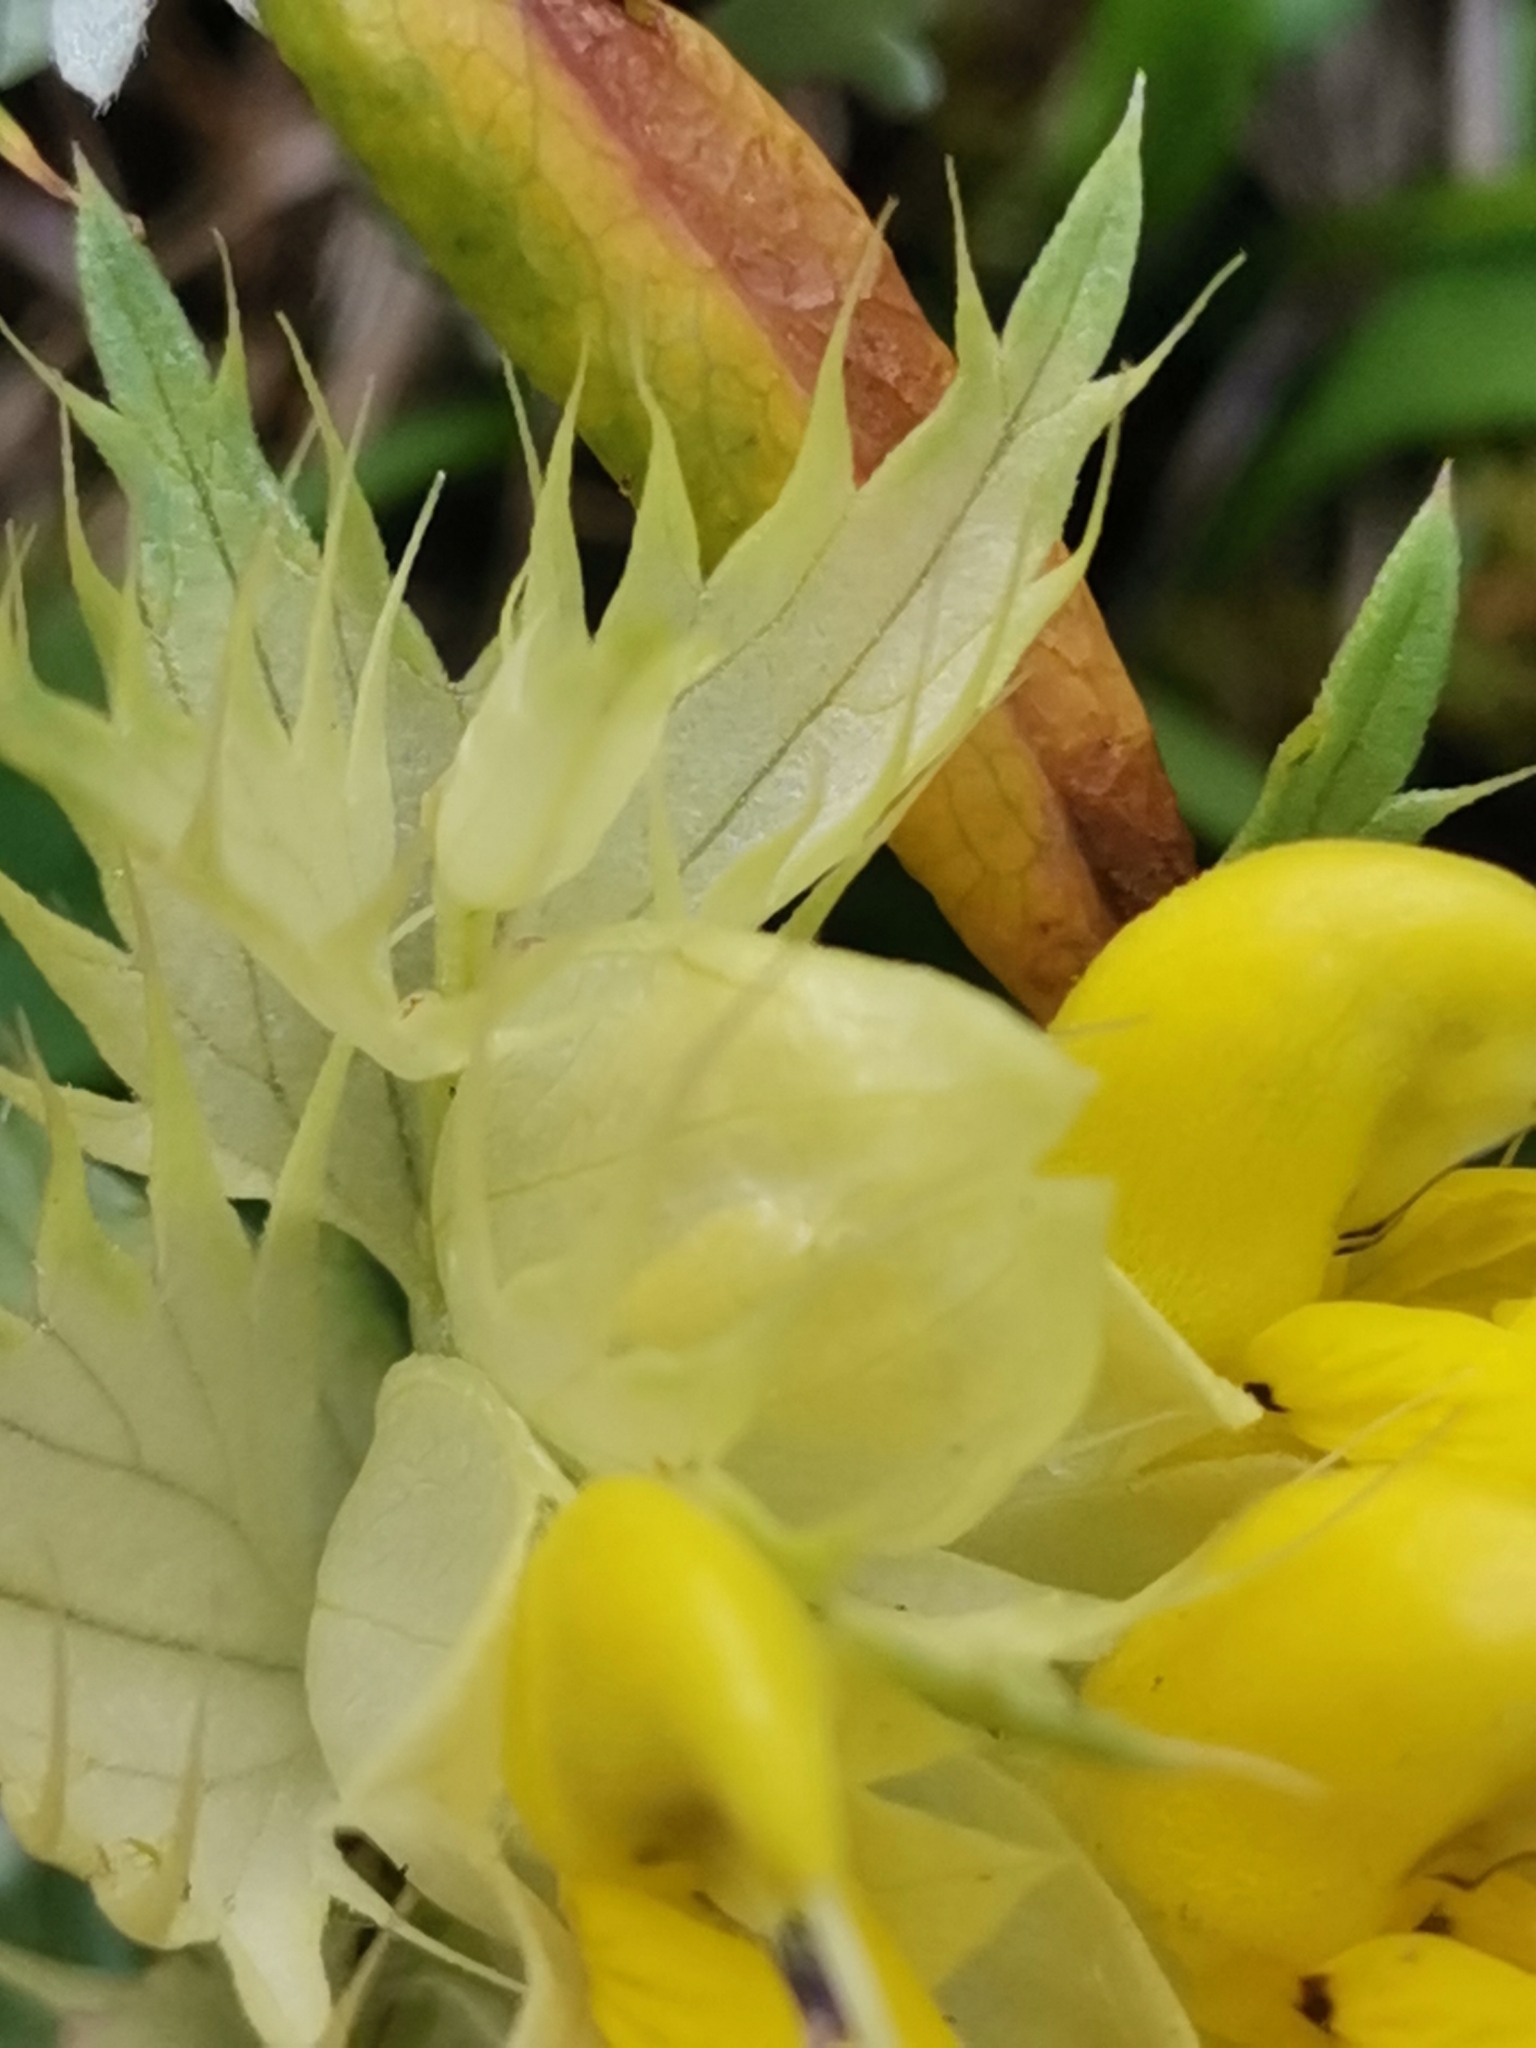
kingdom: Plantae
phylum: Tracheophyta
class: Magnoliopsida
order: Lamiales
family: Orobanchaceae
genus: Rhinanthus
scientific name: Rhinanthus glacialis
